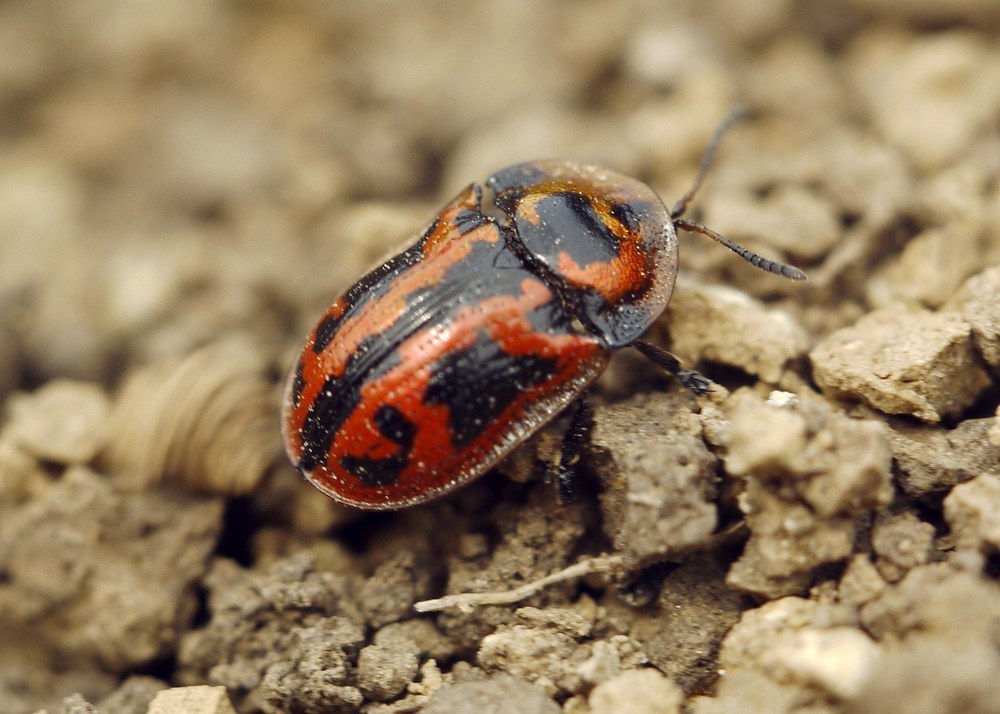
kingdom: Animalia
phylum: Arthropoda
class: Insecta
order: Coleoptera
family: Chrysomelidae
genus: Pilemostoma
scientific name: Pilemostoma fastuosa
